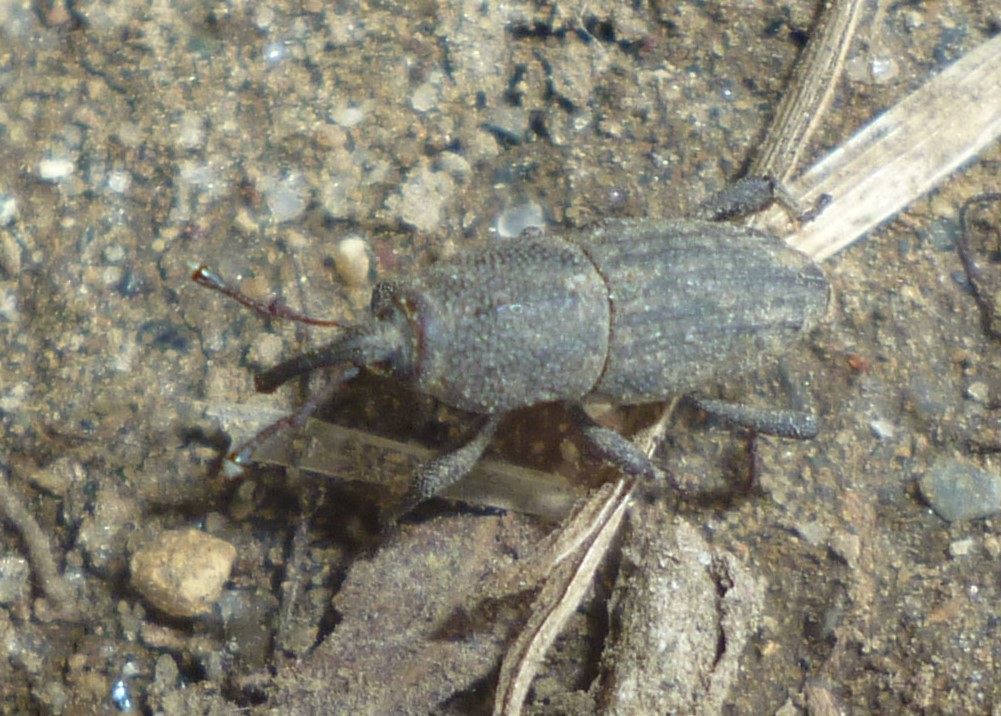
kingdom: Animalia
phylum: Arthropoda
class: Insecta
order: Coleoptera
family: Dryophthoridae
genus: Sphenophorus
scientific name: Sphenophorus interstitialis
